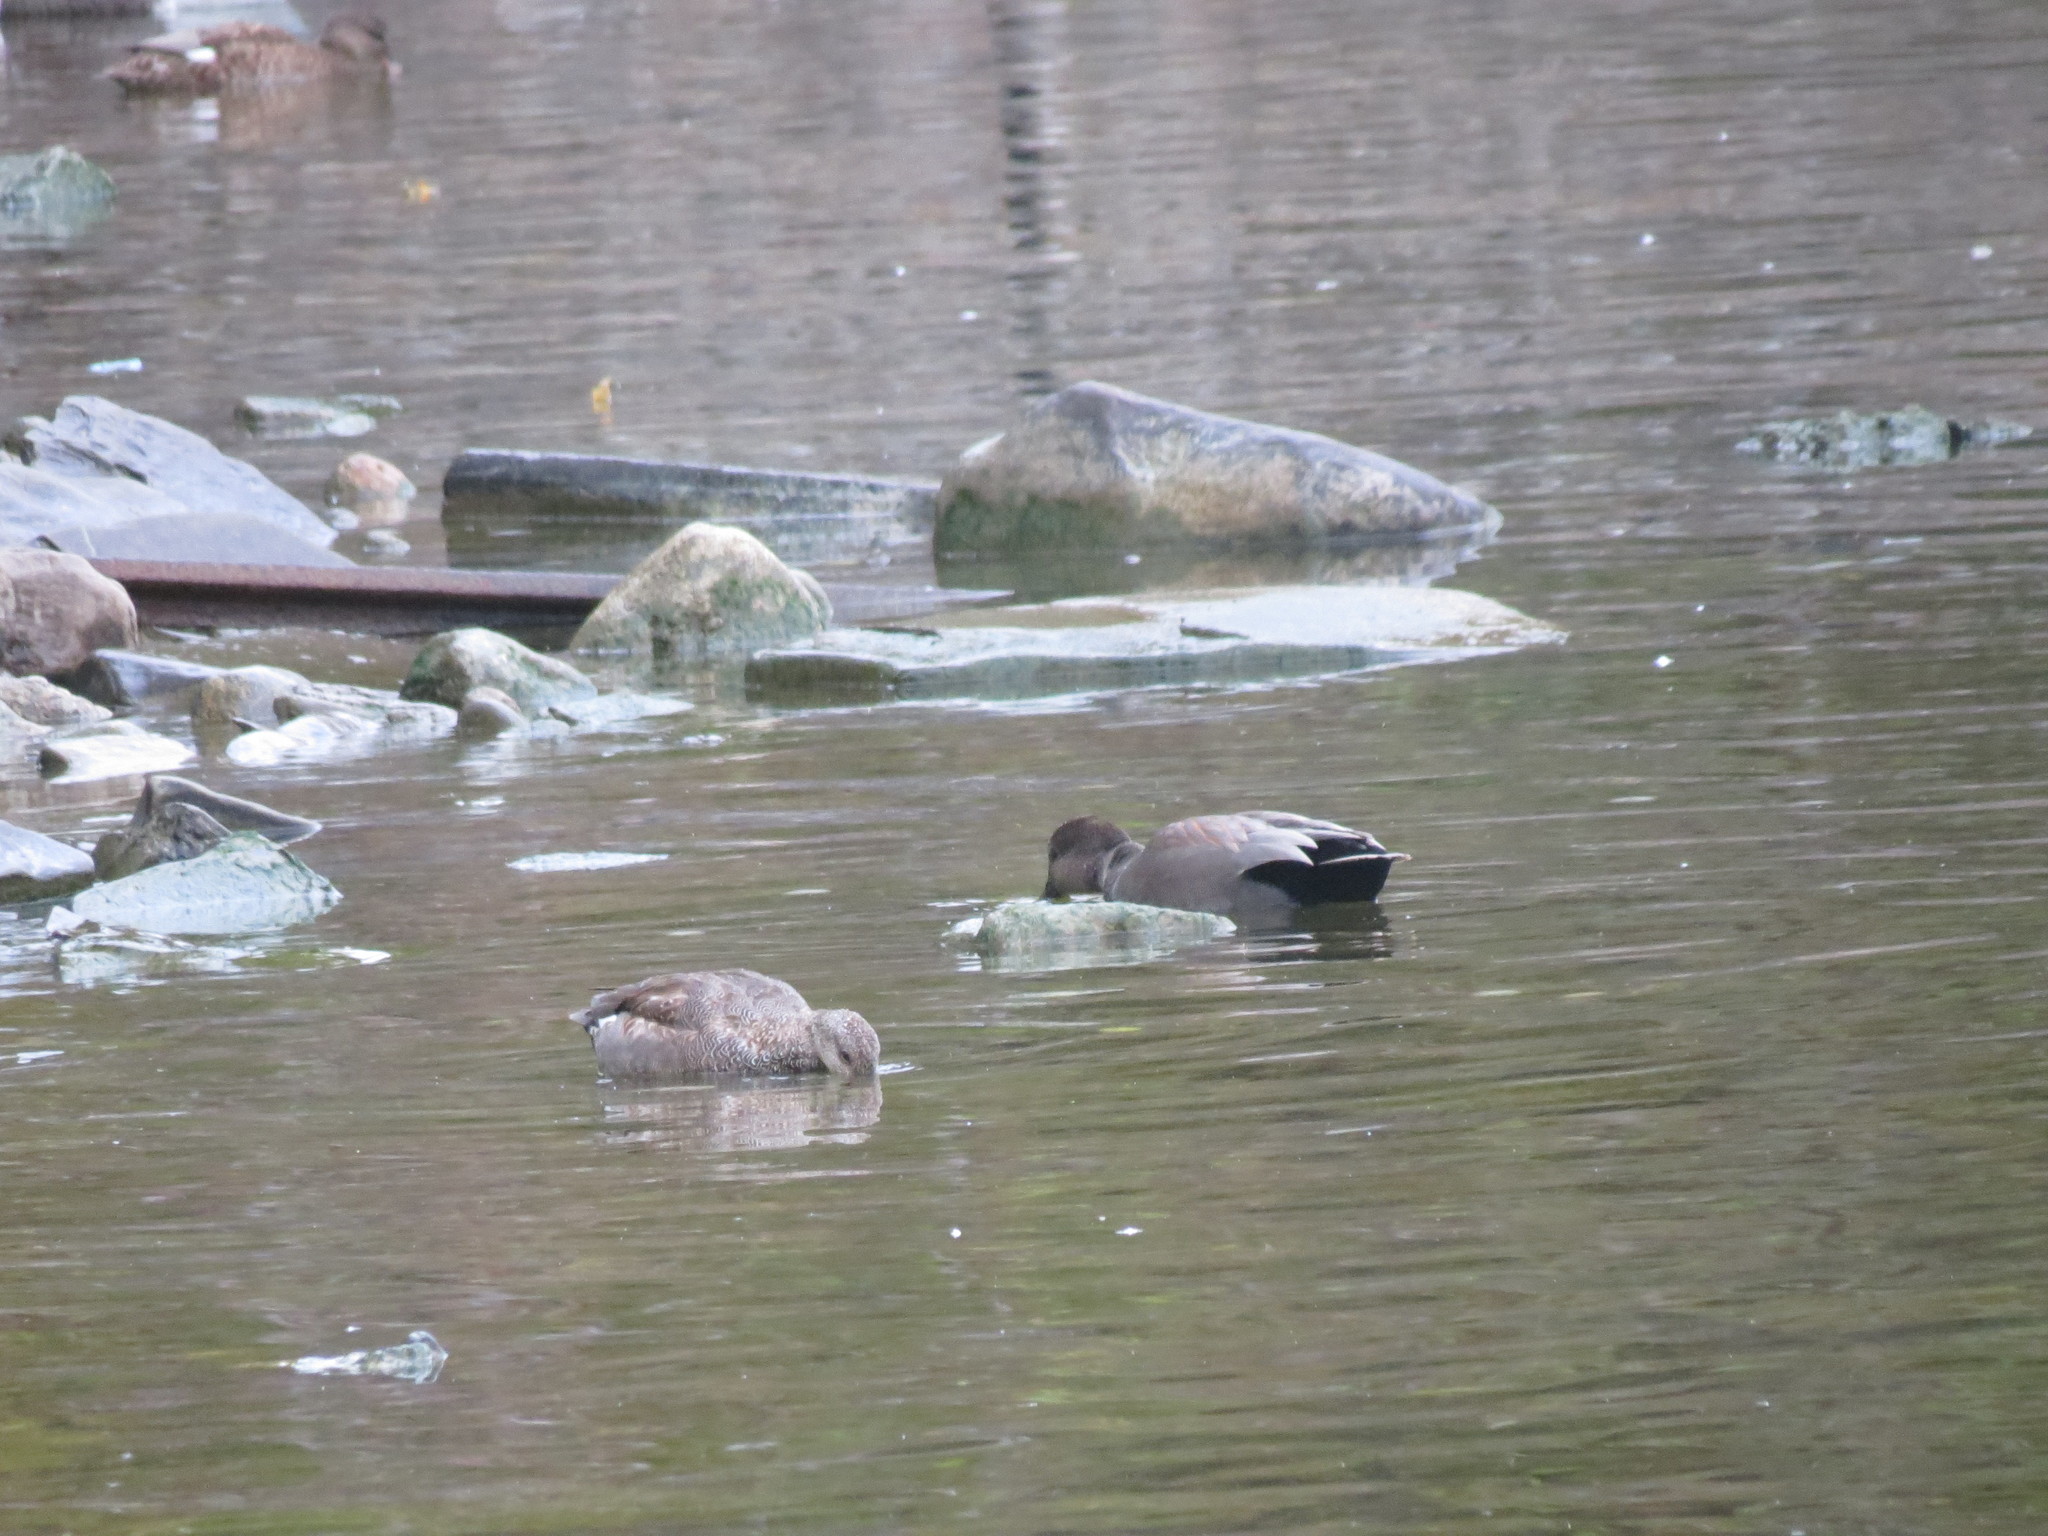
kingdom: Animalia
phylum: Chordata
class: Aves
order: Anseriformes
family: Anatidae
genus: Mareca
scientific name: Mareca strepera
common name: Gadwall
